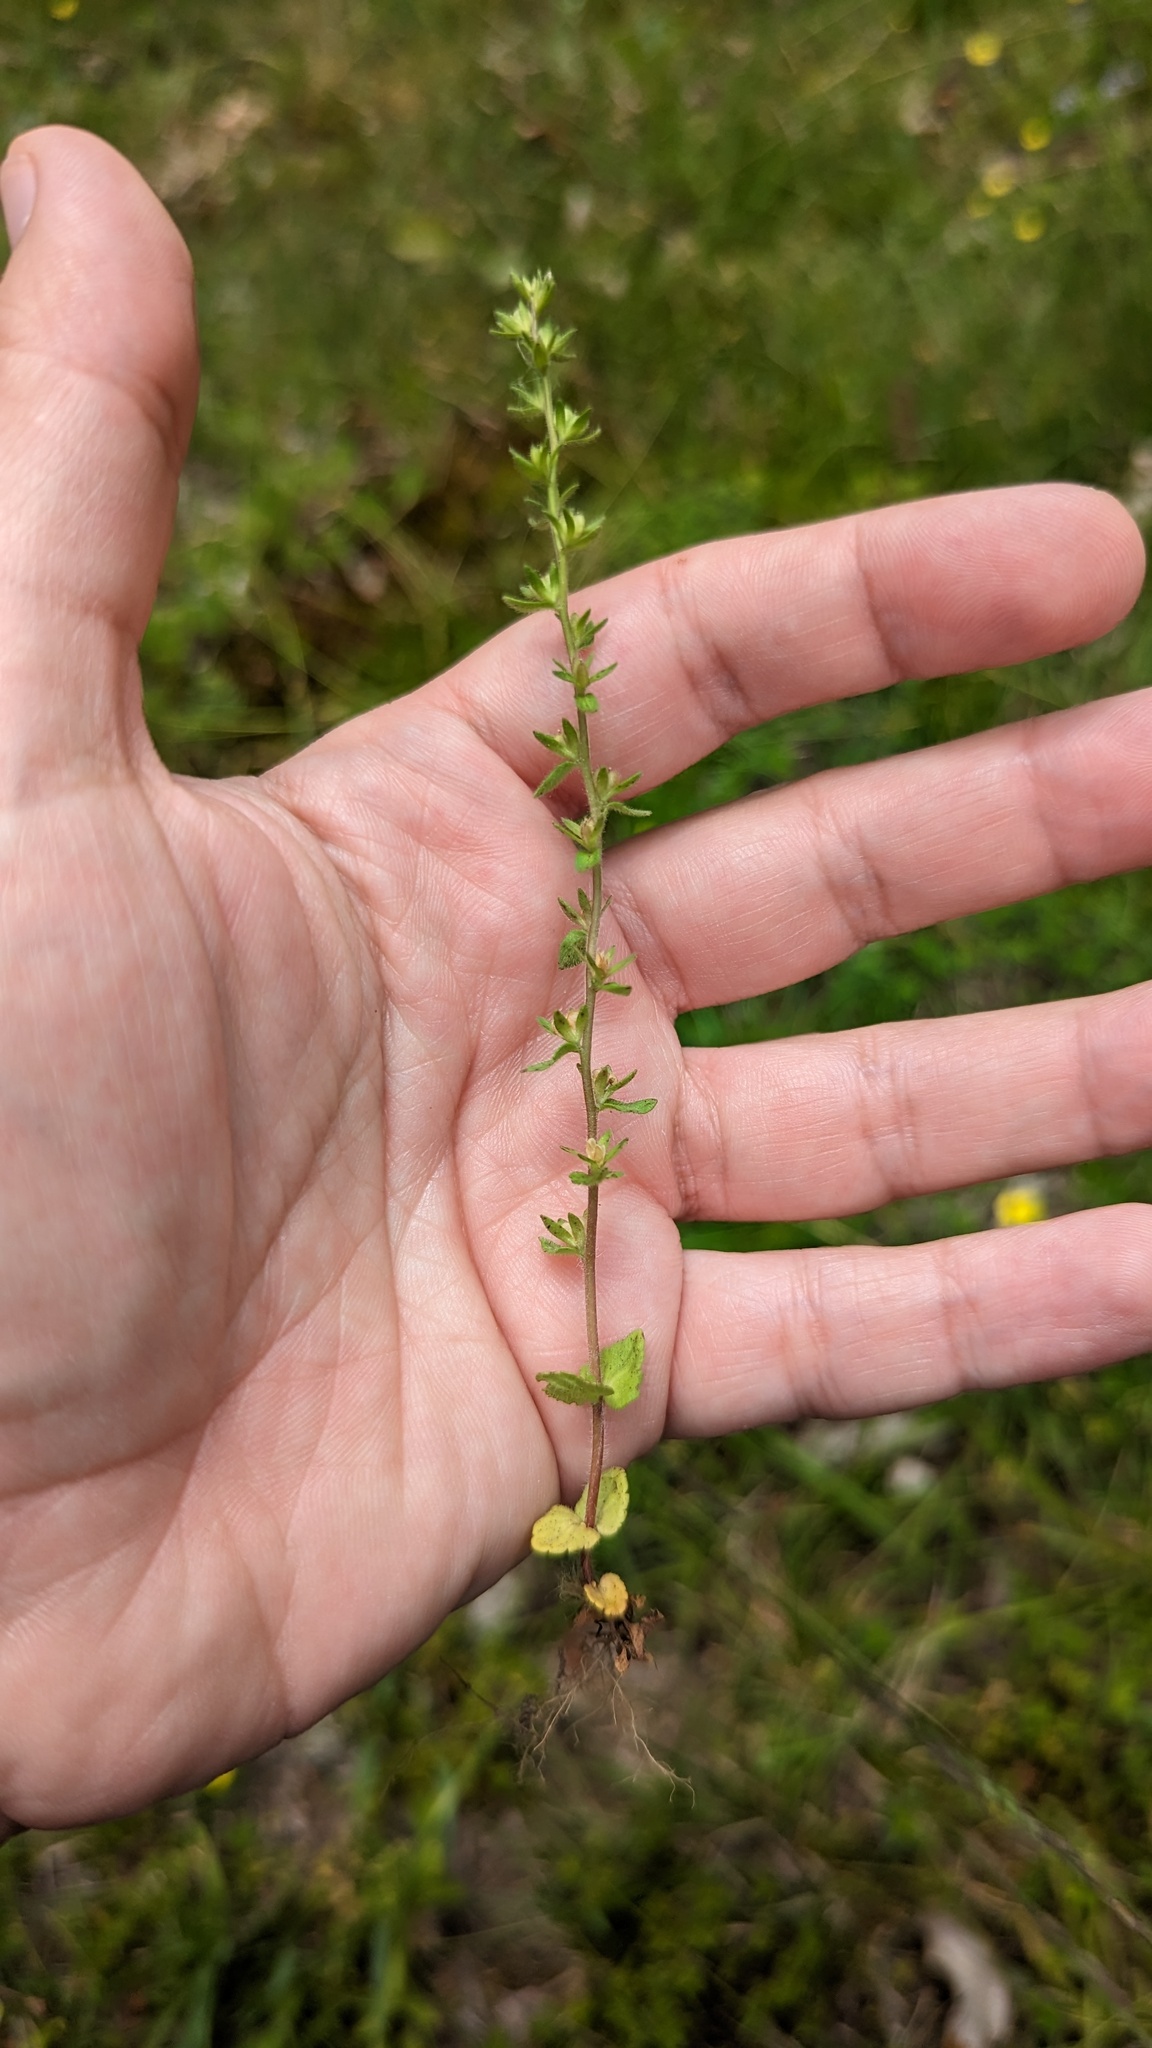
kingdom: Plantae
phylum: Tracheophyta
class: Magnoliopsida
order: Lamiales
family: Plantaginaceae
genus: Veronica
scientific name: Veronica arvensis
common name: Corn speedwell
